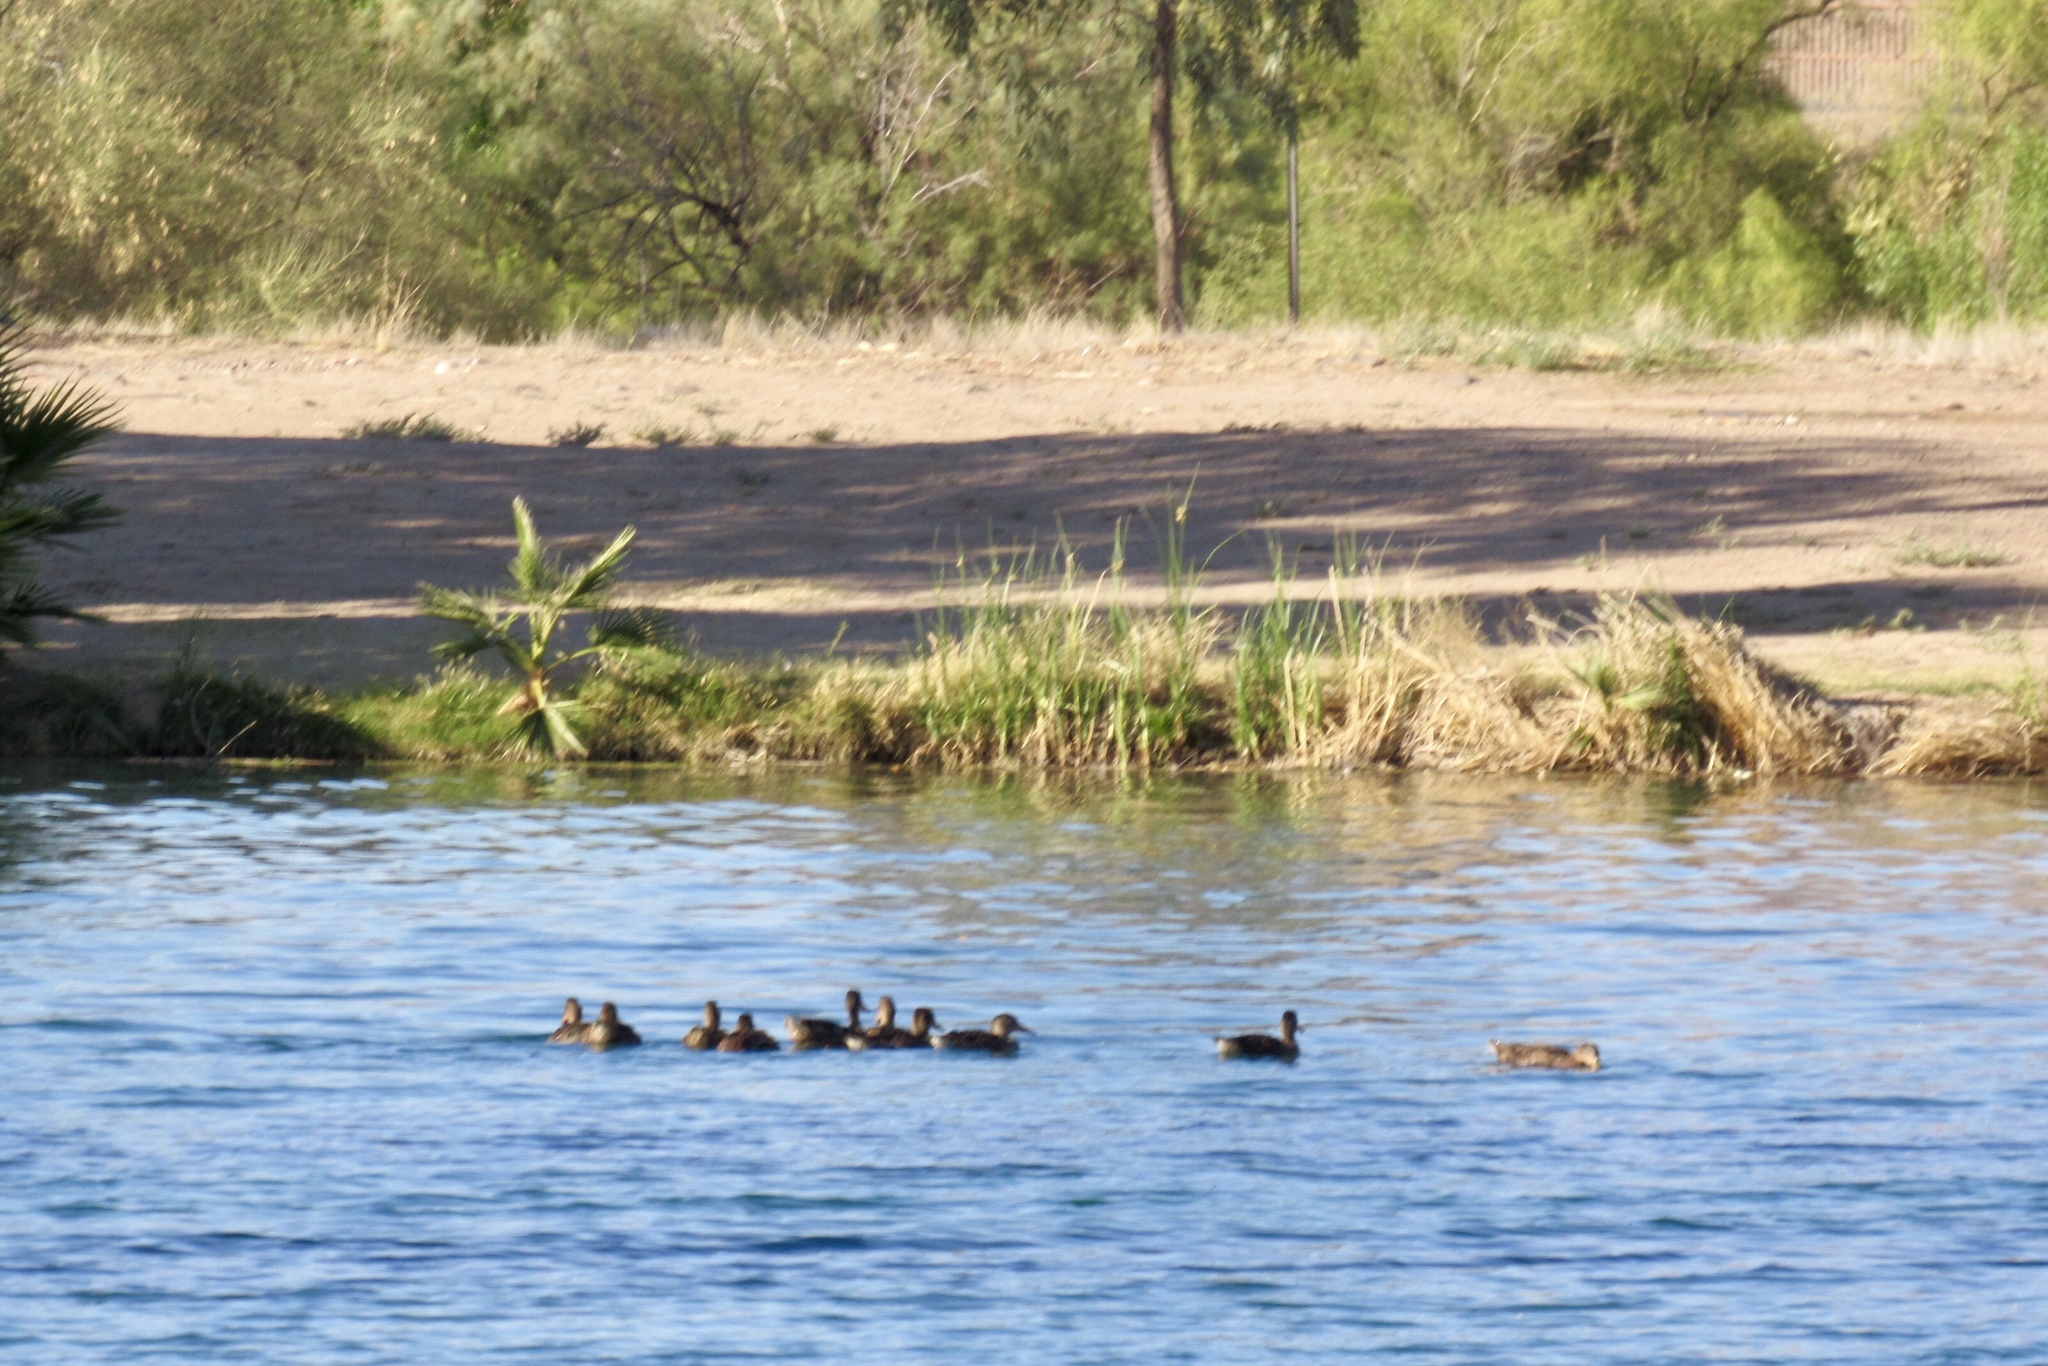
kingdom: Animalia
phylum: Chordata
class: Aves
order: Anseriformes
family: Anatidae
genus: Anas
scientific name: Anas platyrhynchos
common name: Mallard
